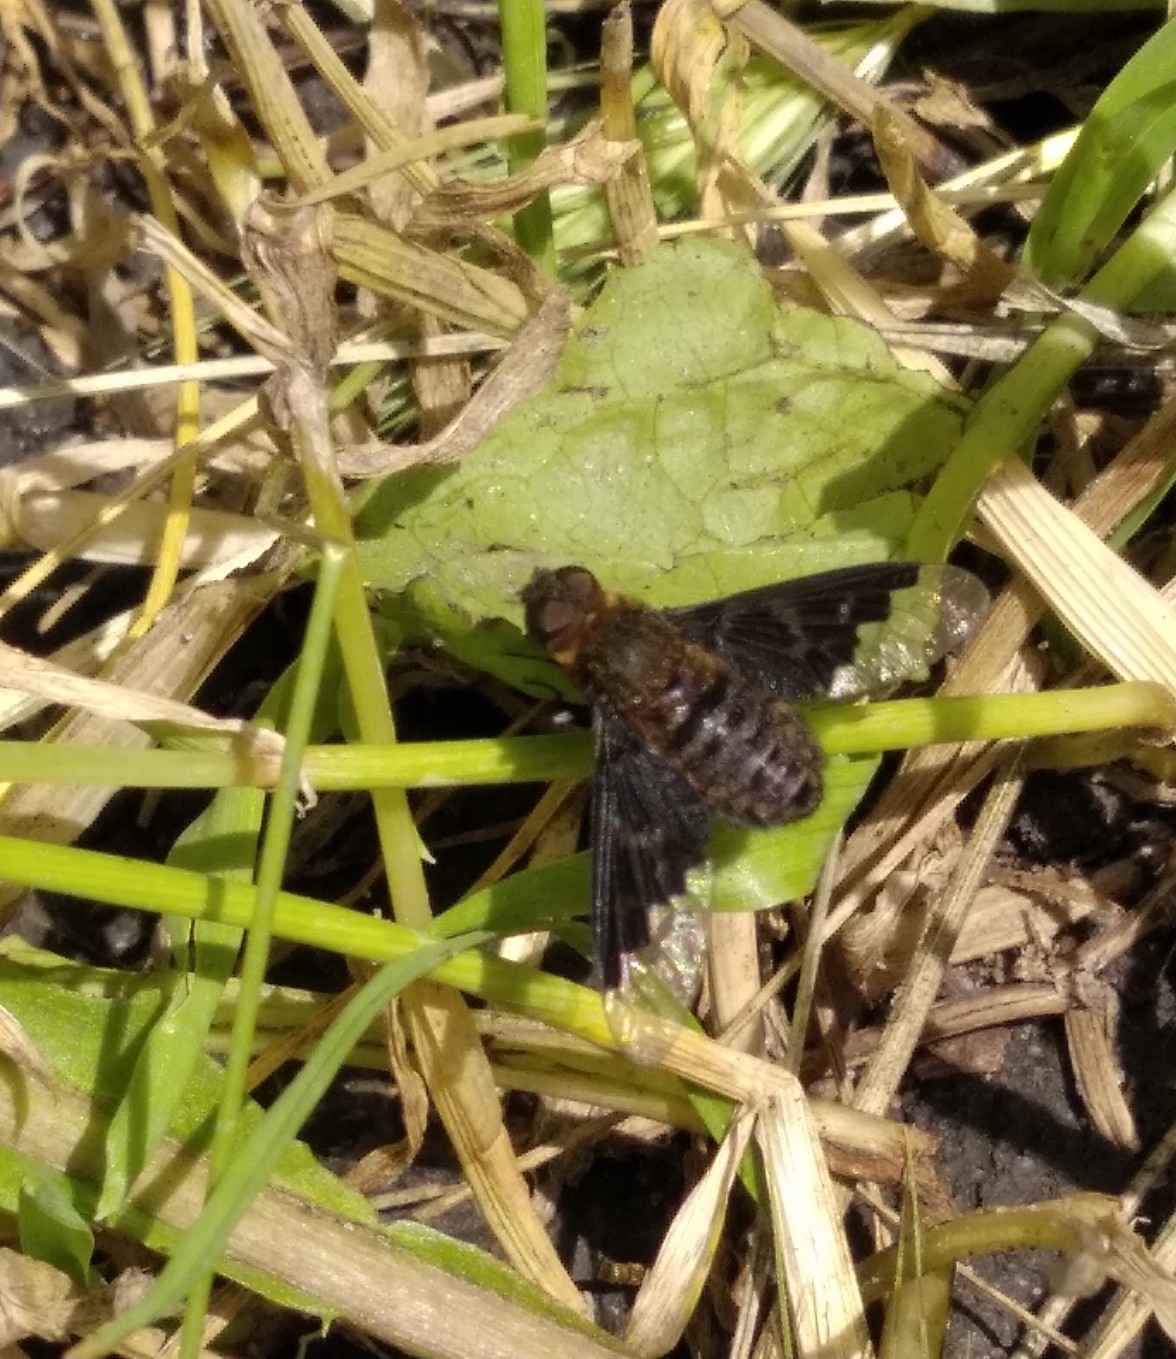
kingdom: Animalia
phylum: Arthropoda
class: Insecta
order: Diptera
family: Bombyliidae
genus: Hemipenthes
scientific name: Hemipenthes morio
